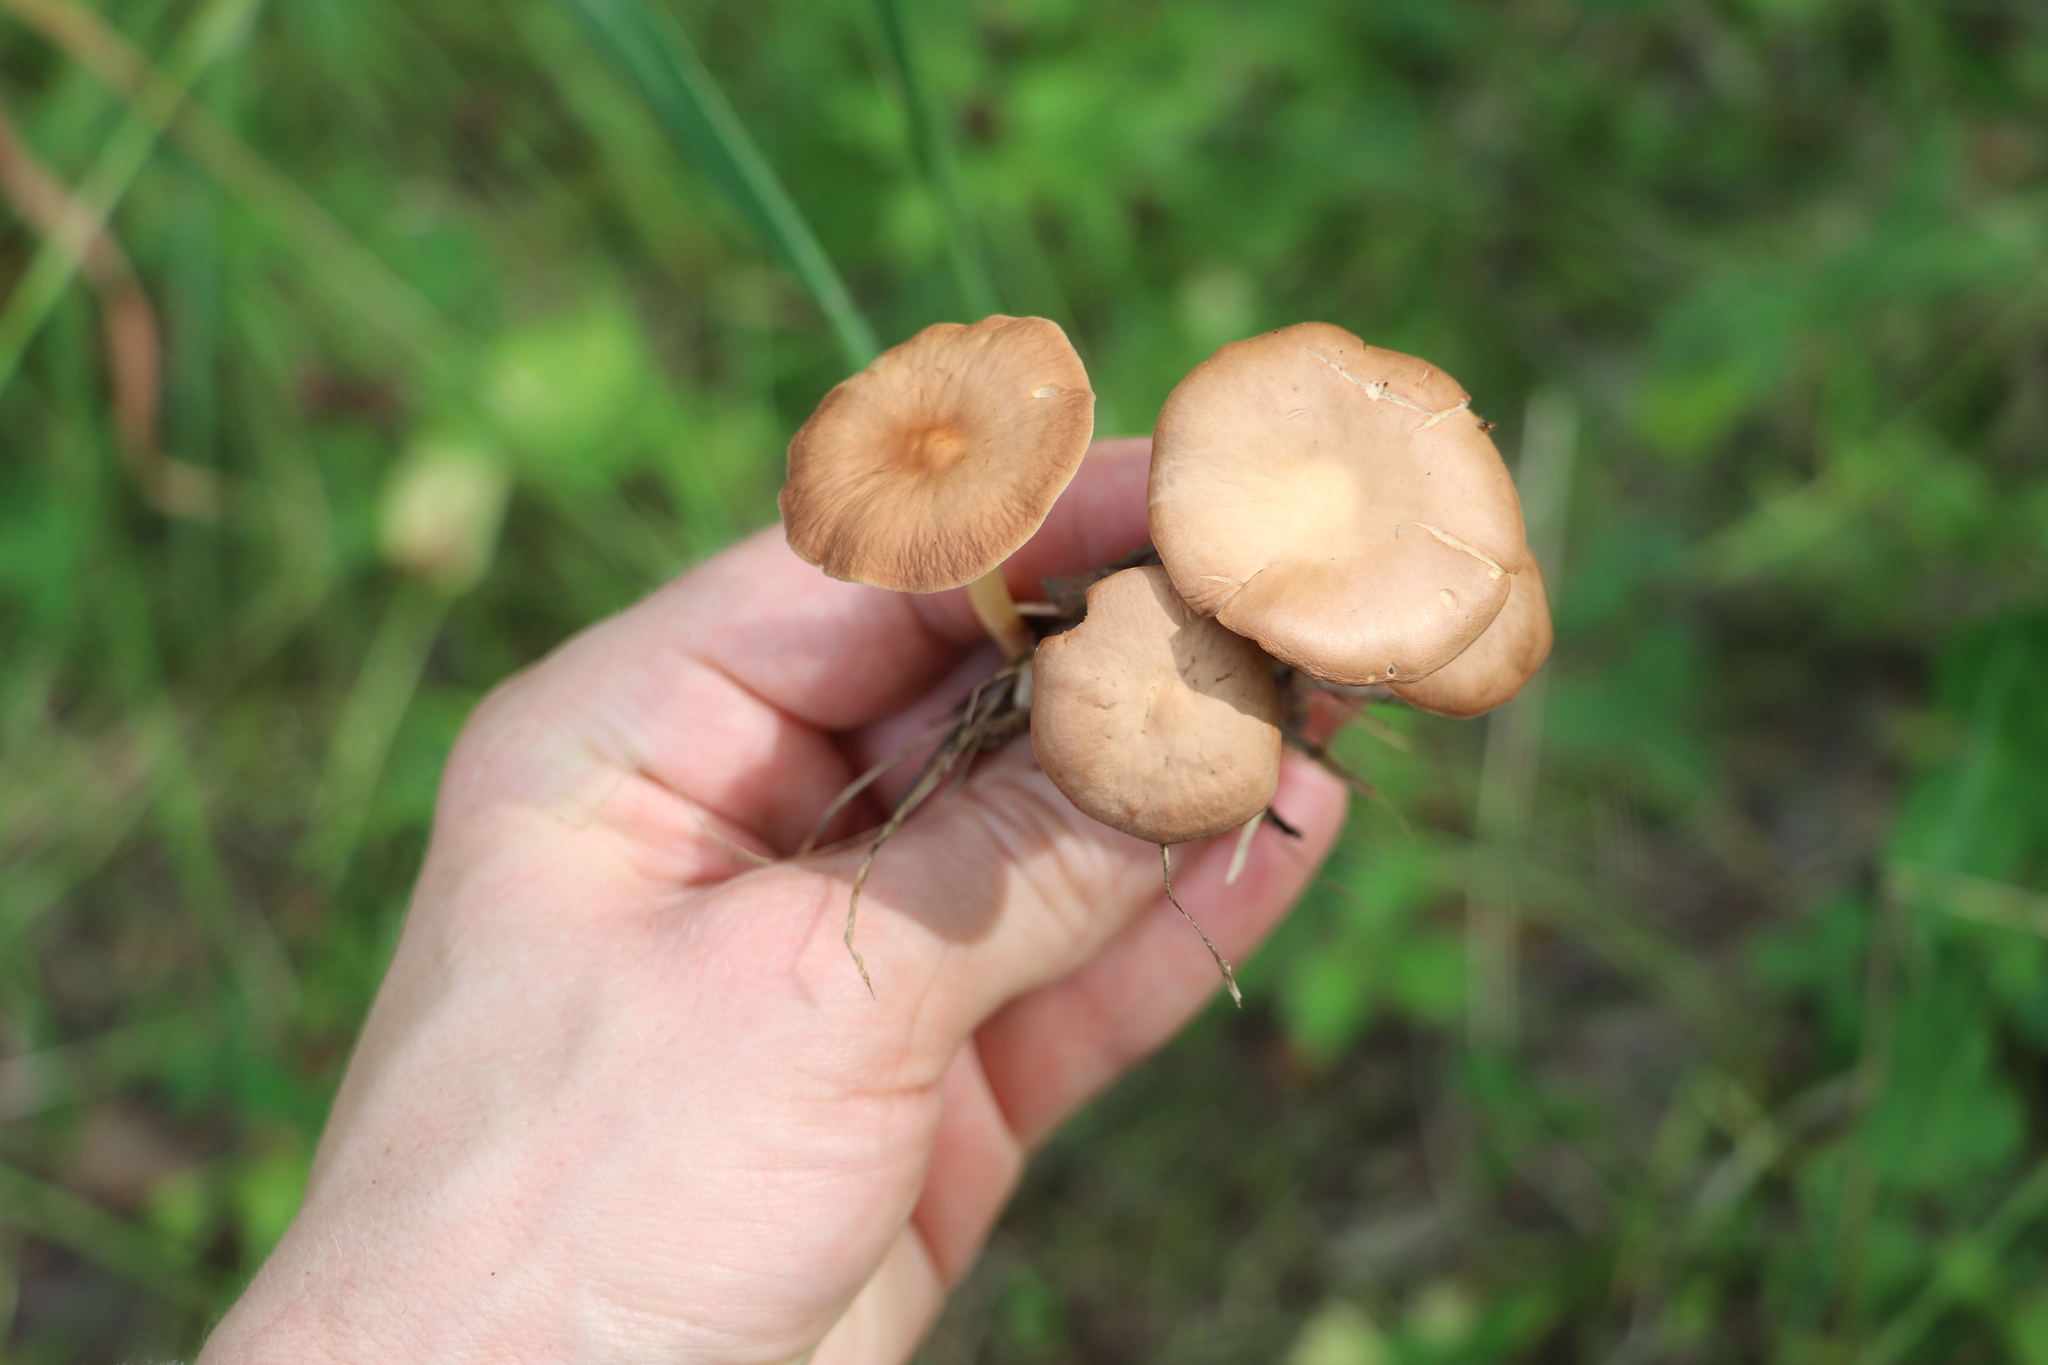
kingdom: Fungi
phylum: Basidiomycota
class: Agaricomycetes
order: Agaricales
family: Omphalotaceae
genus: Gymnopus
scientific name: Gymnopus aquosus
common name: Watery toughshank
